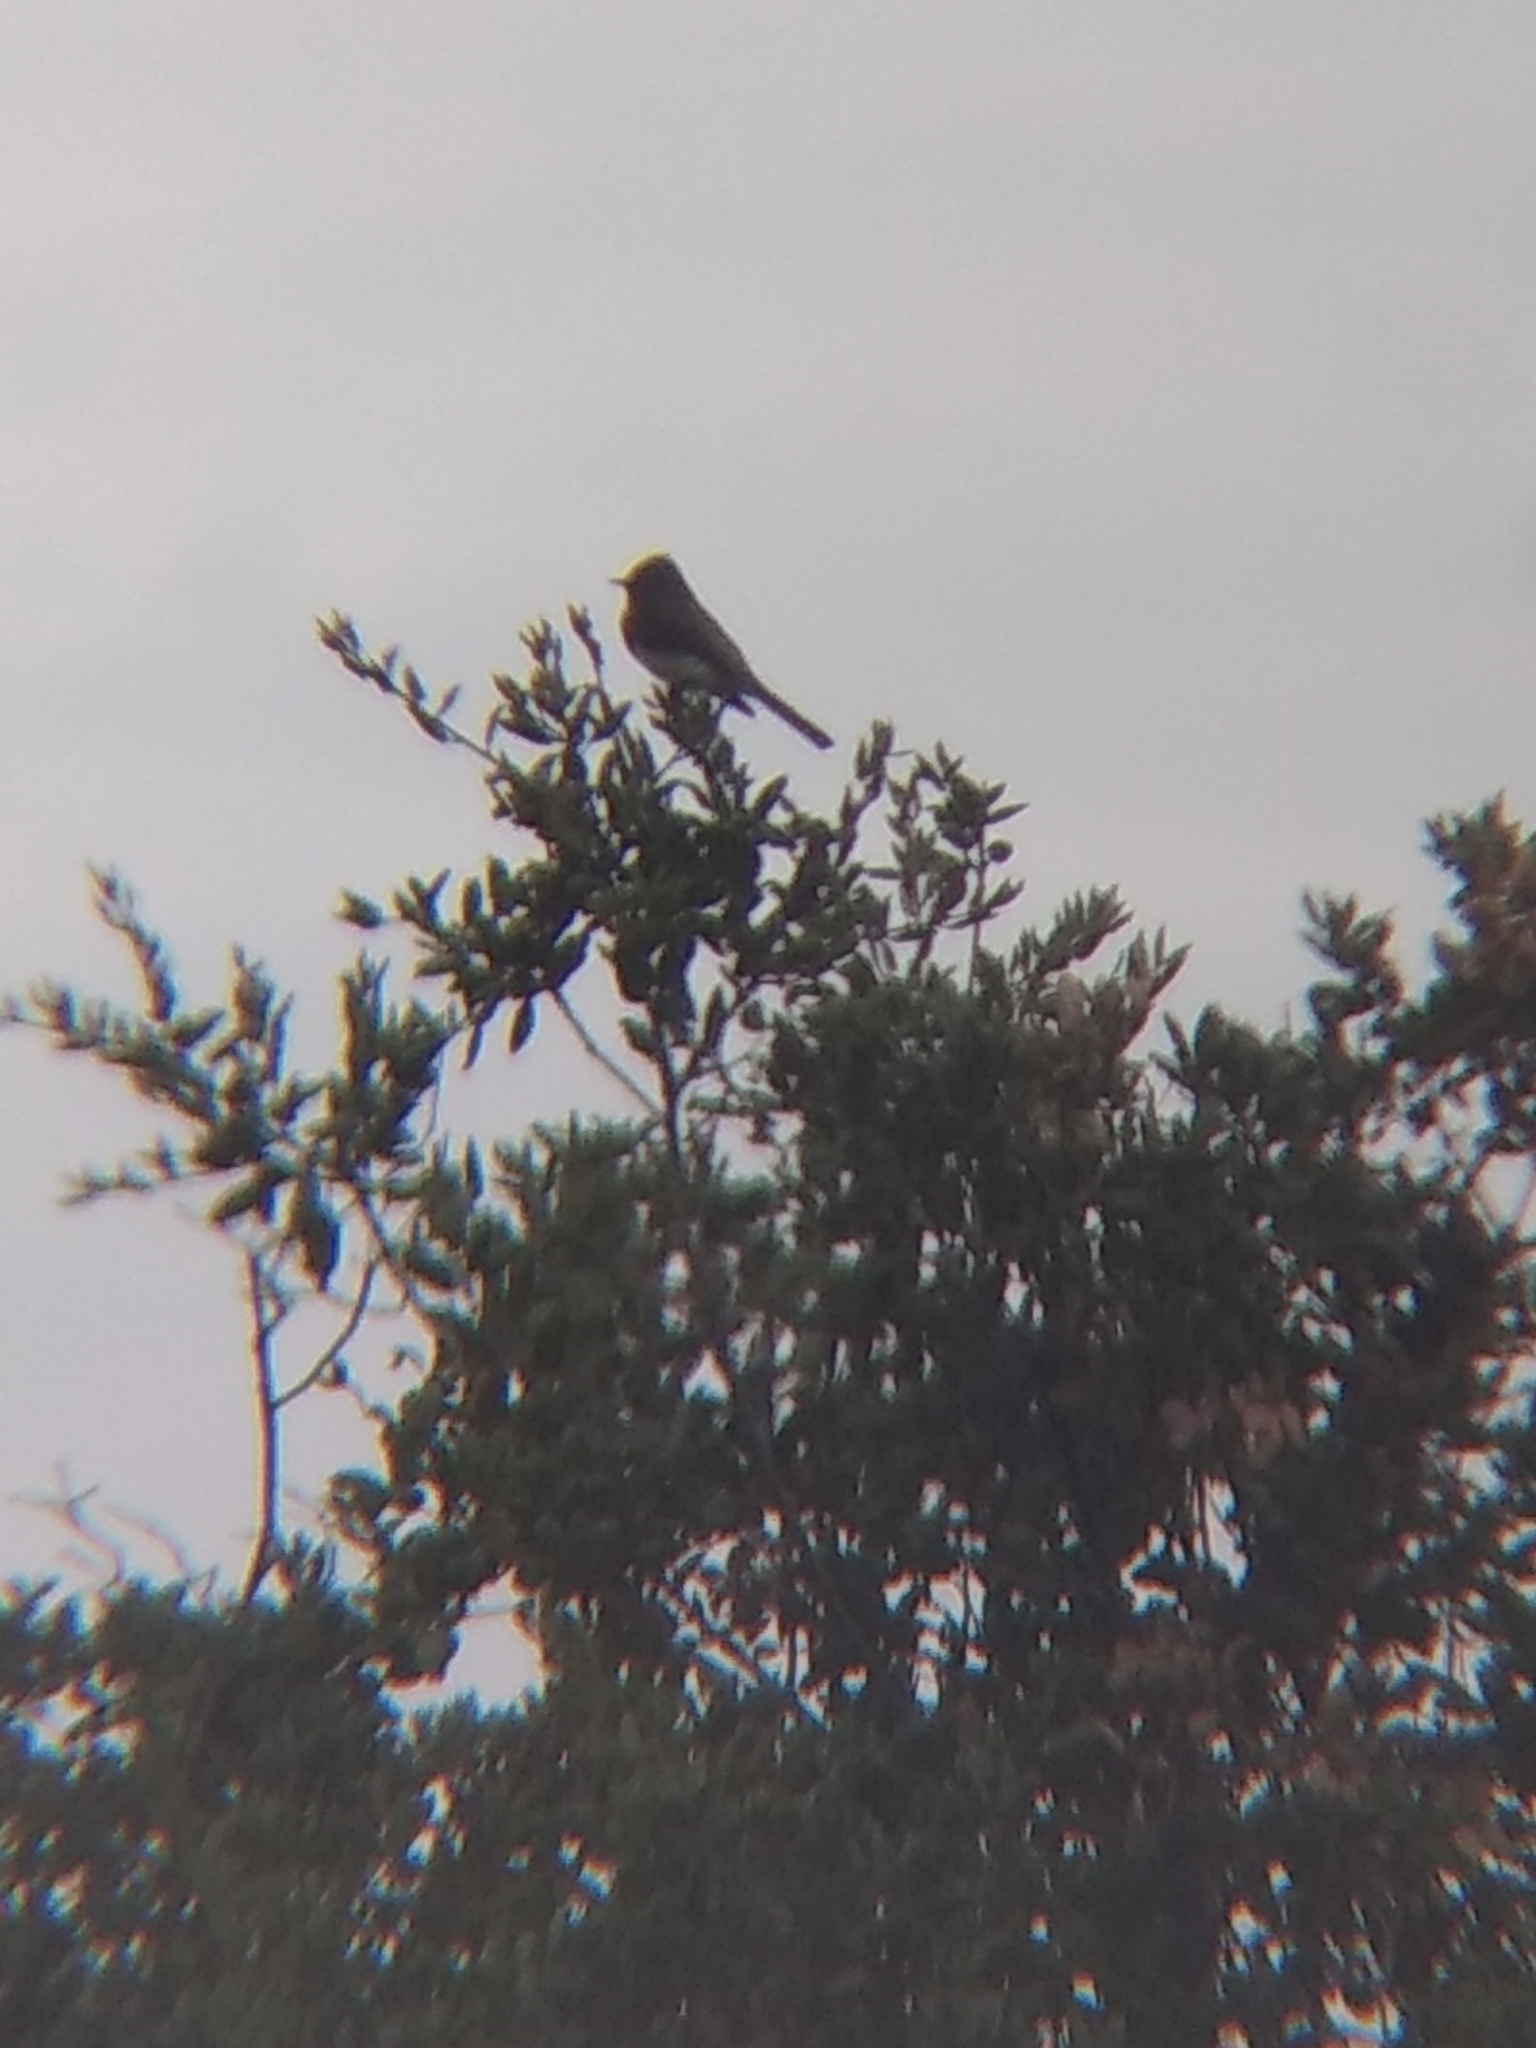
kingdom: Animalia
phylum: Chordata
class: Aves
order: Passeriformes
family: Tyrannidae
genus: Sayornis
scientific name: Sayornis nigricans
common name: Black phoebe
